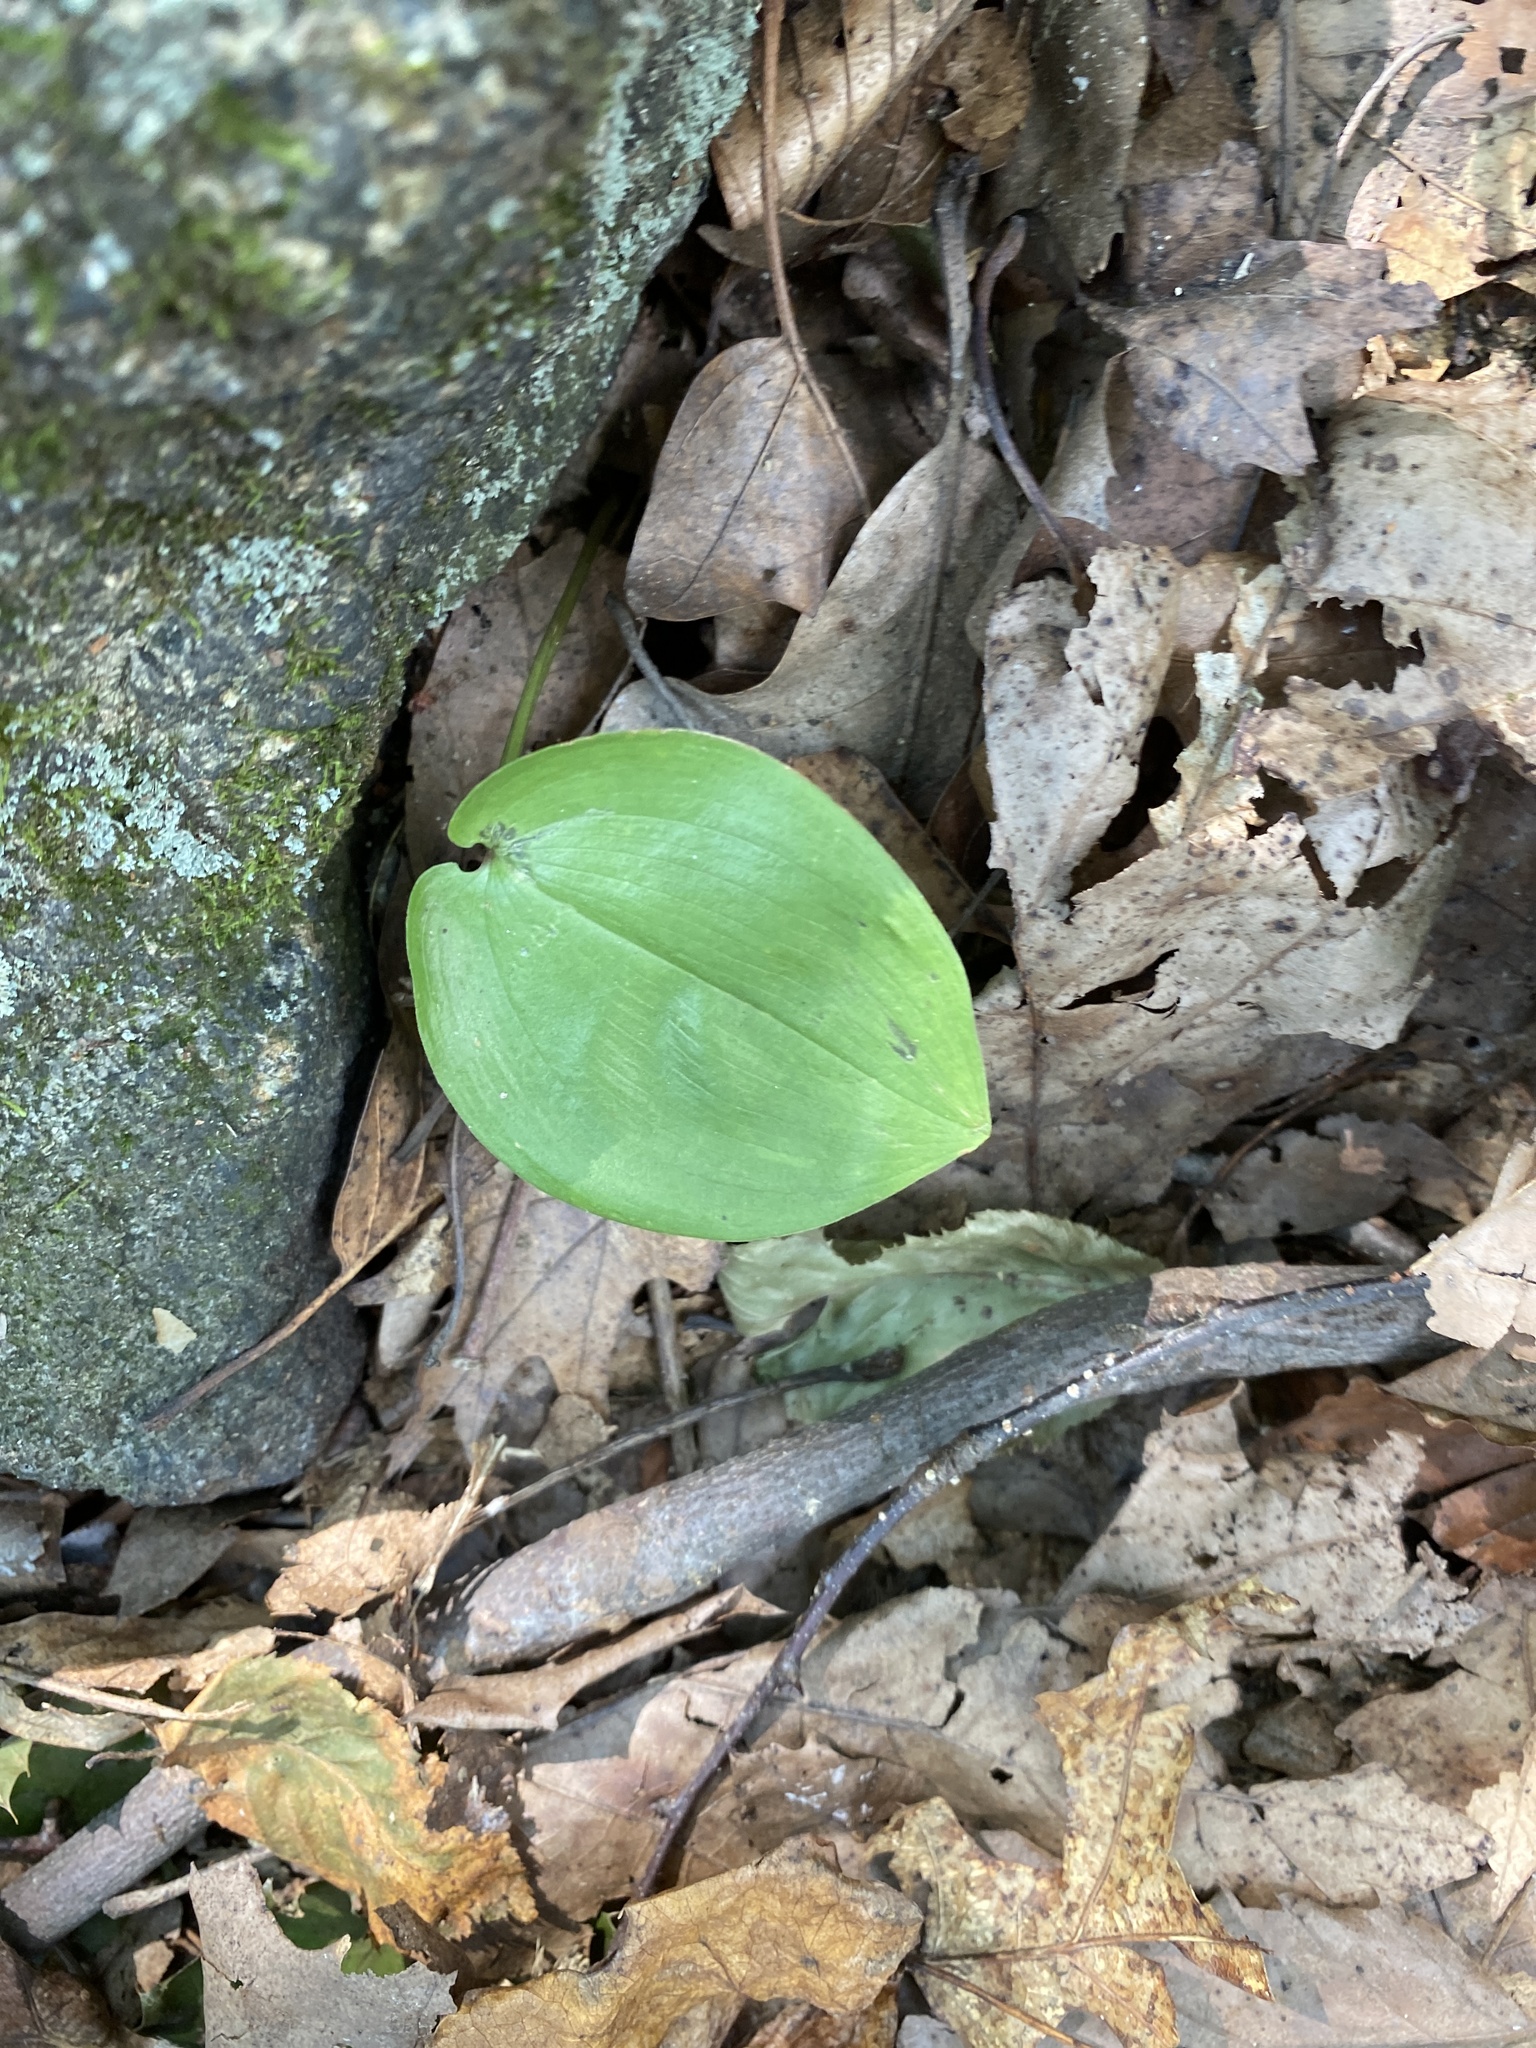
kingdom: Plantae
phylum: Tracheophyta
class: Liliopsida
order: Asparagales
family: Asparagaceae
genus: Maianthemum
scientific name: Maianthemum canadense
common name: False lily-of-the-valley
